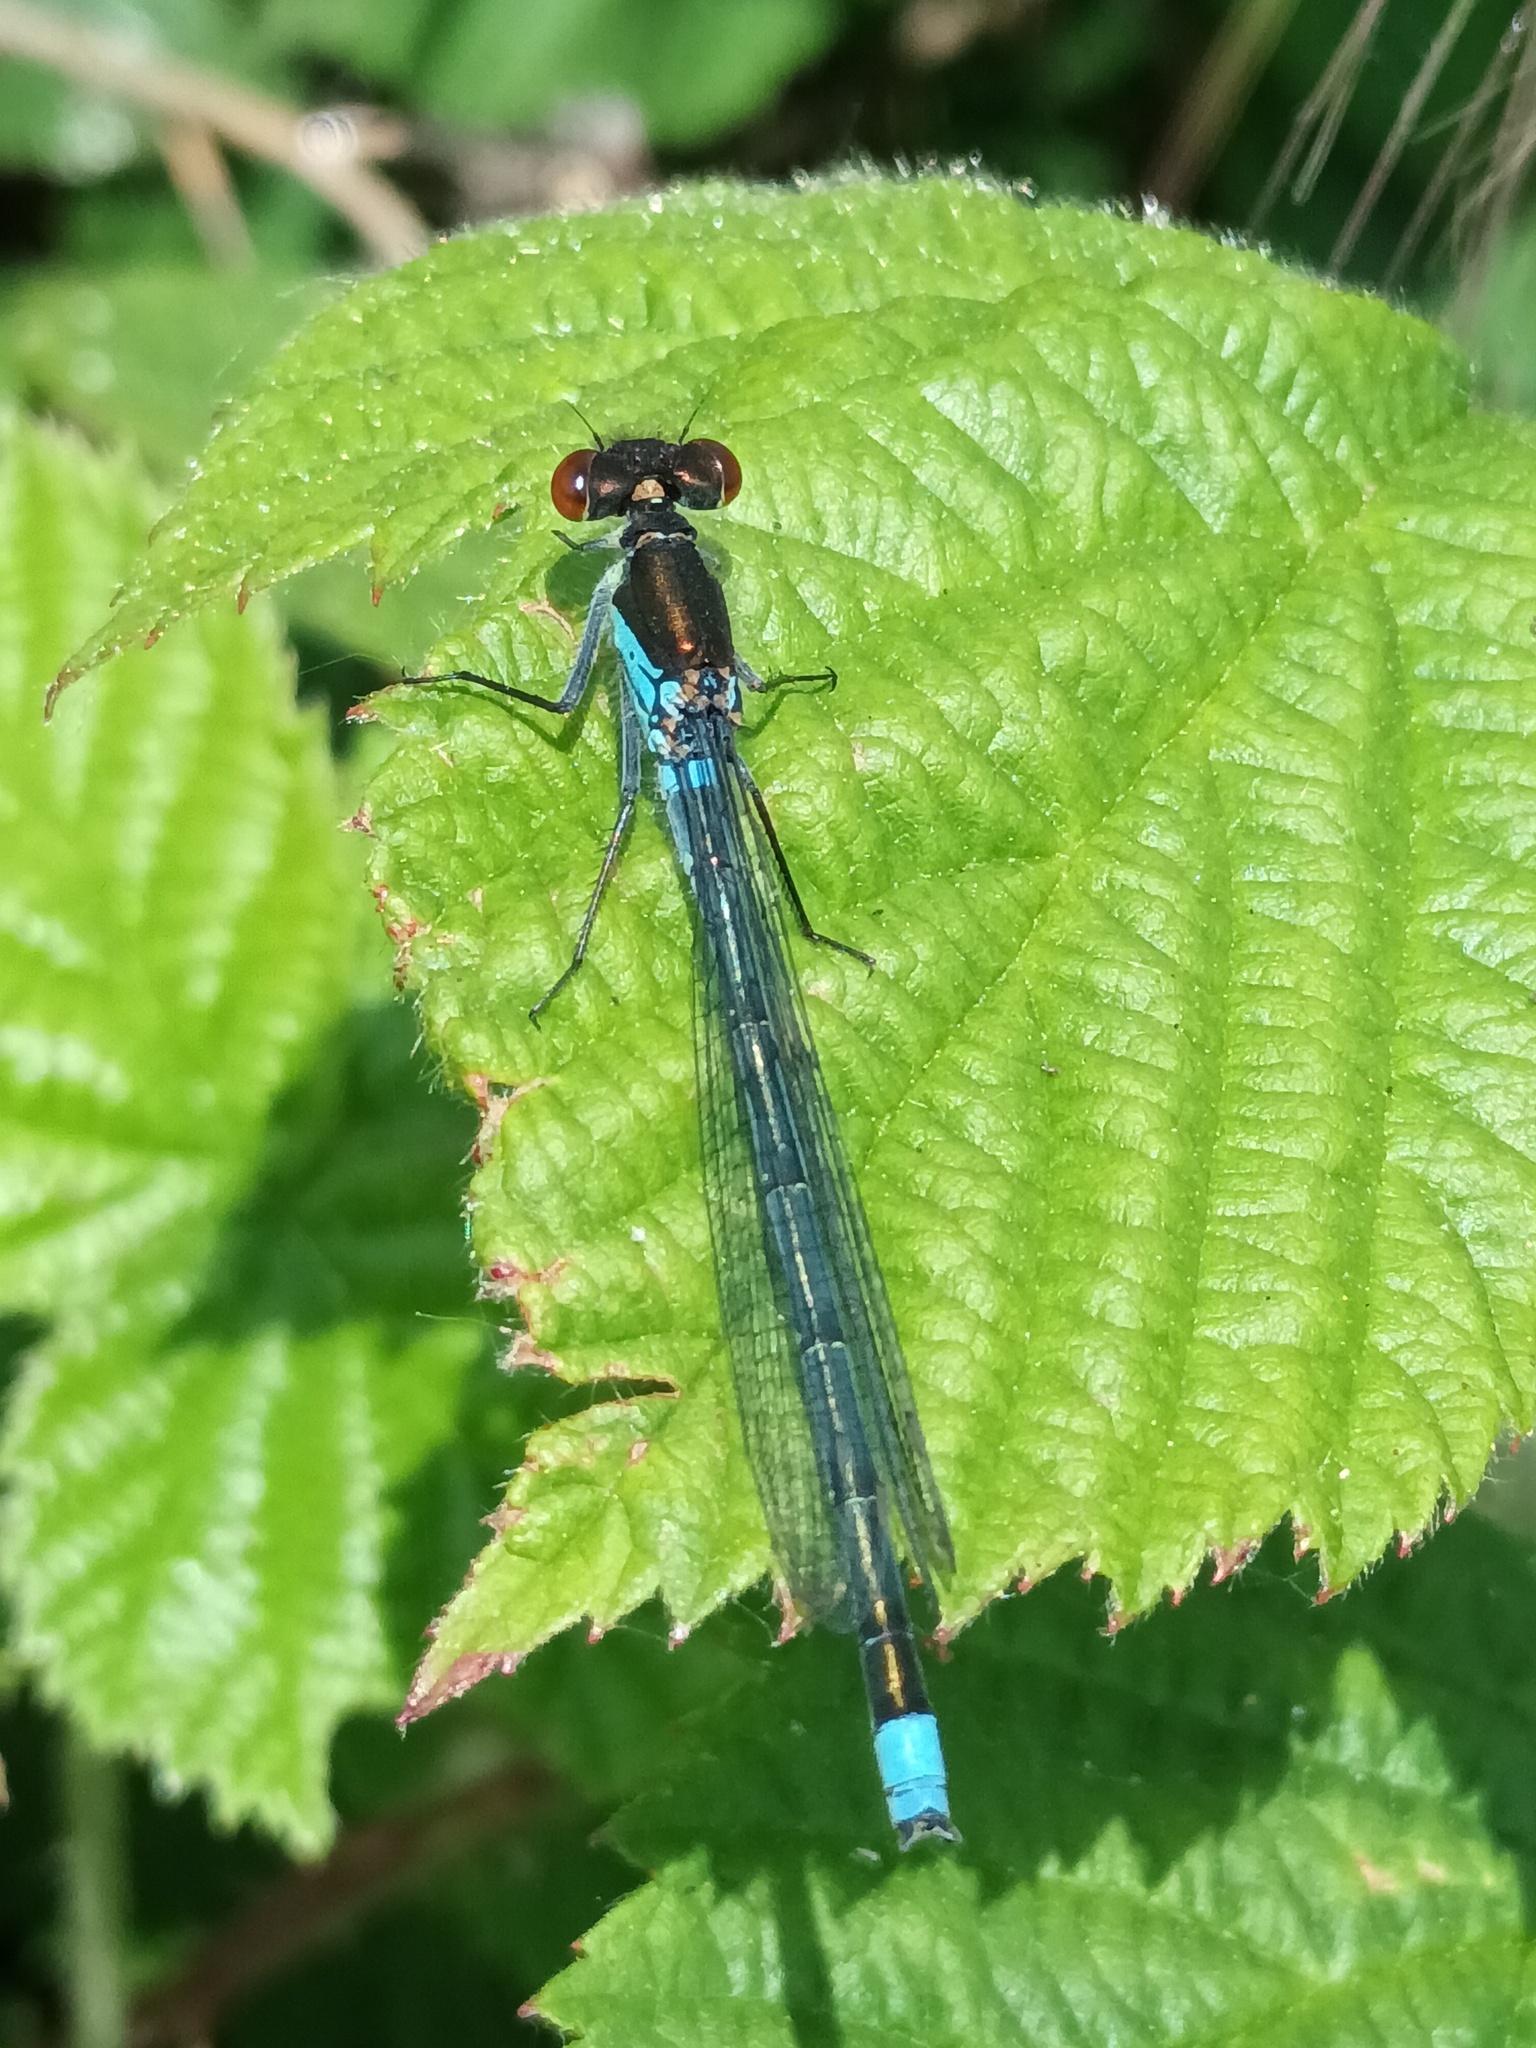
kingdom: Animalia
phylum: Arthropoda
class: Insecta
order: Odonata
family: Coenagrionidae
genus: Erythromma
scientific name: Erythromma najas
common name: Red-eyed damselfly
